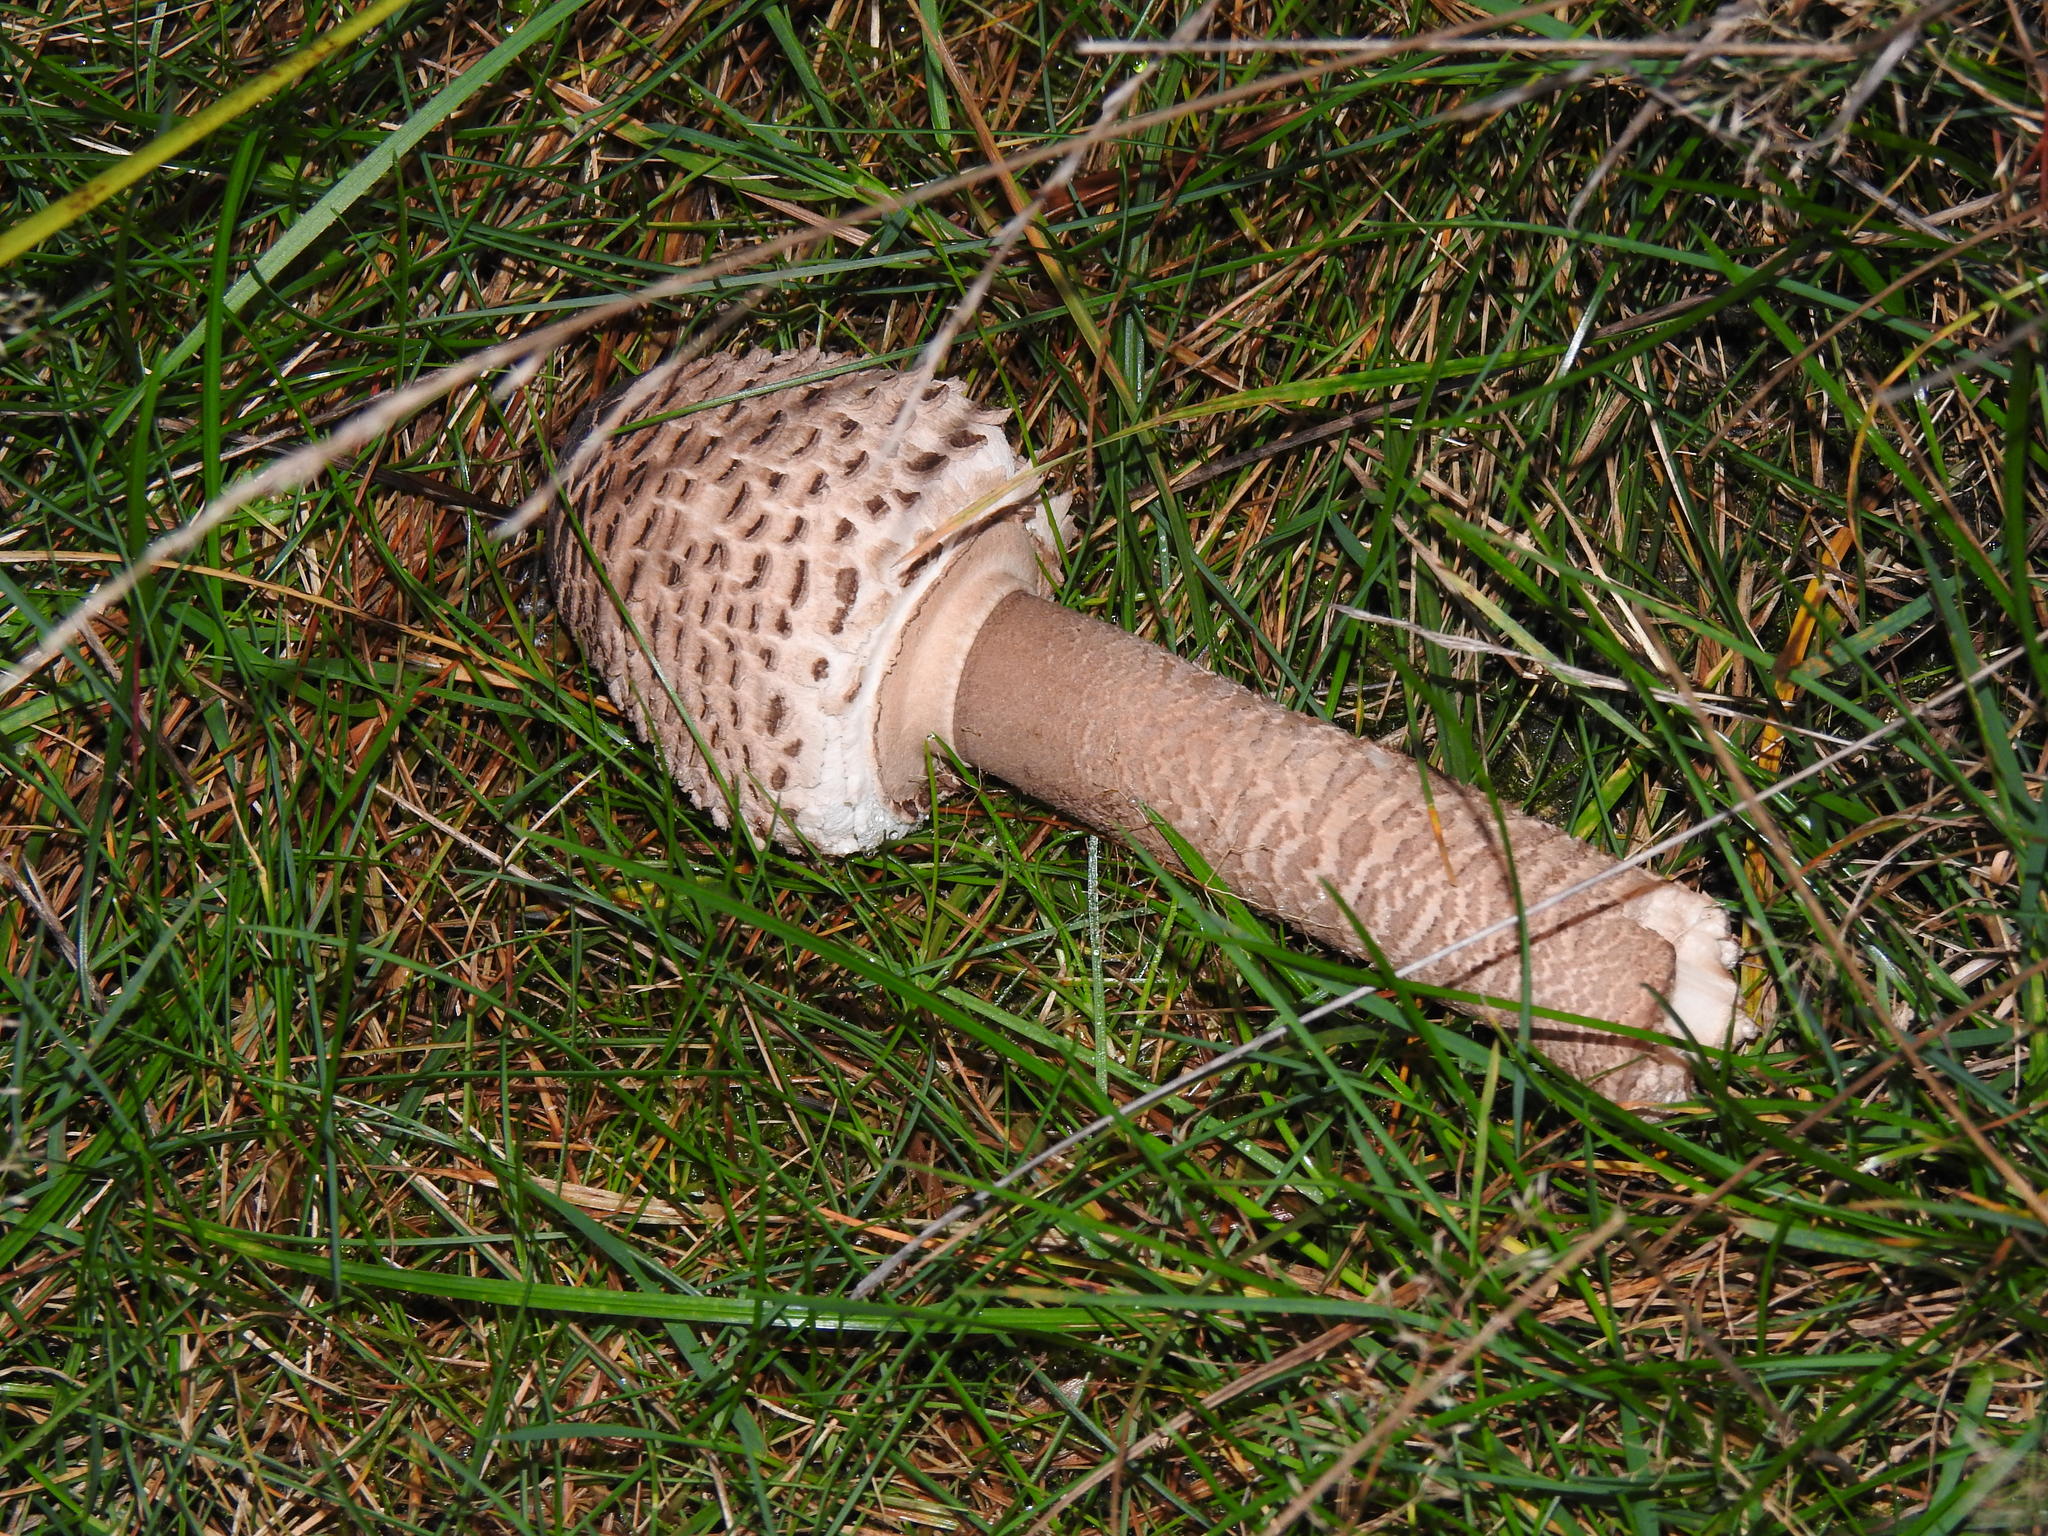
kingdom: Fungi
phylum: Basidiomycota
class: Agaricomycetes
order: Agaricales
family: Agaricaceae
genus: Macrolepiota
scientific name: Macrolepiota procera
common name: Parasol
